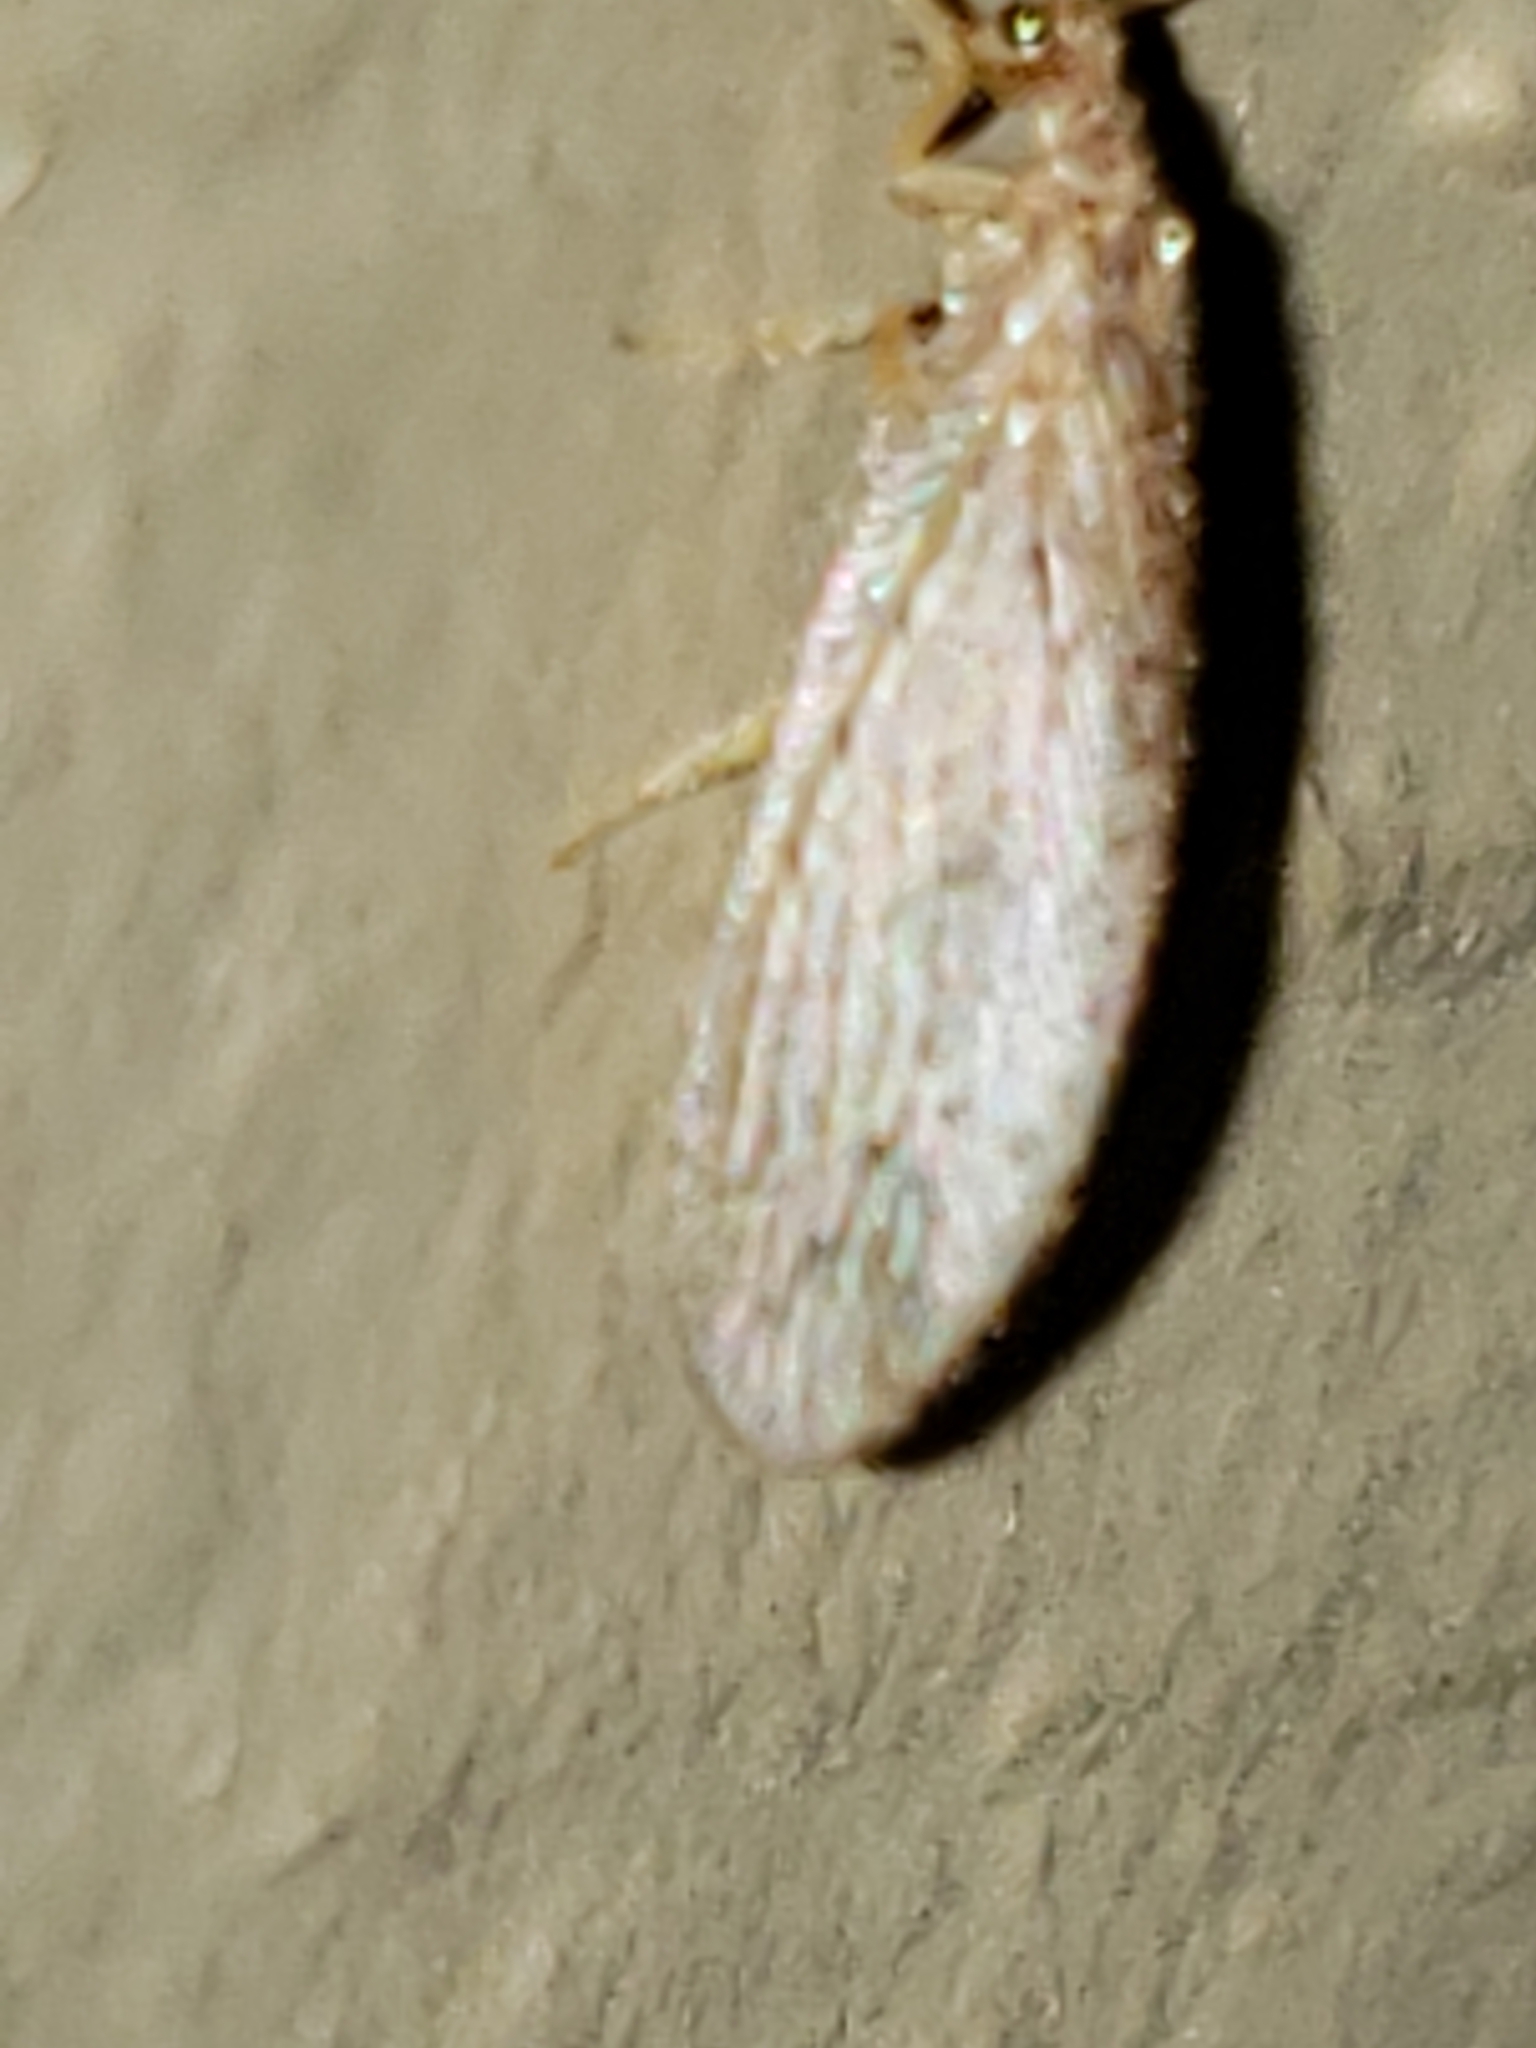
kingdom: Animalia
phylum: Arthropoda
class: Insecta
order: Neuroptera
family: Hemerobiidae
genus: Micromus
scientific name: Micromus subanticus
